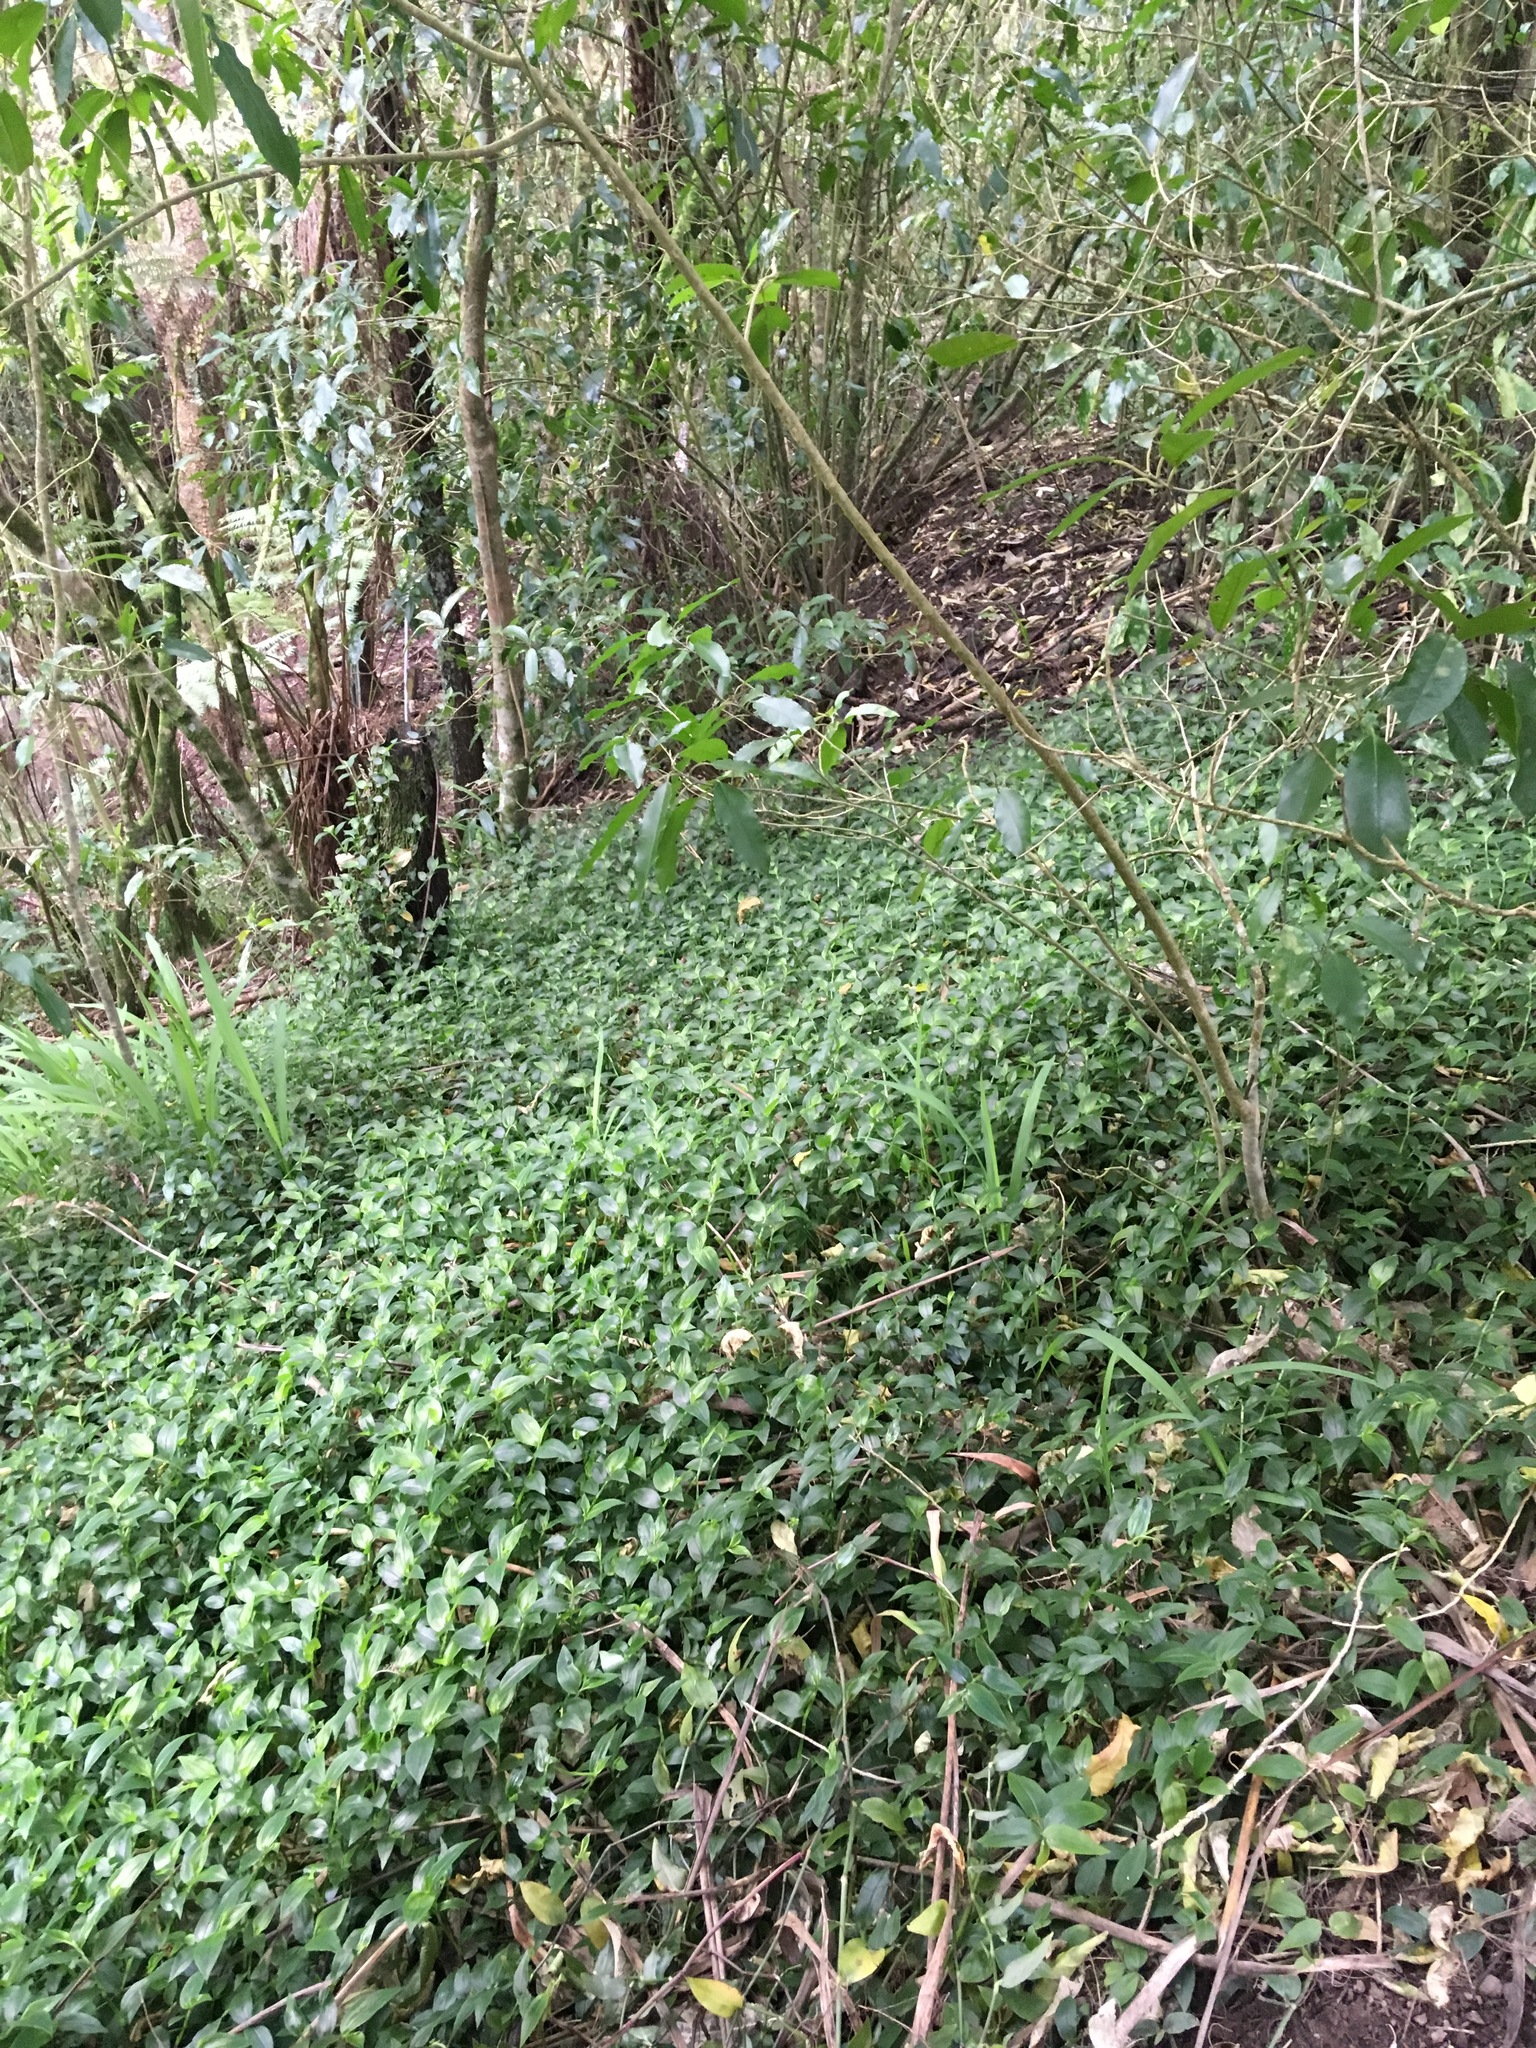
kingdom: Plantae
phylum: Tracheophyta
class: Liliopsida
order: Commelinales
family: Commelinaceae
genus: Tradescantia
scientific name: Tradescantia fluminensis
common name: Wandering-jew
